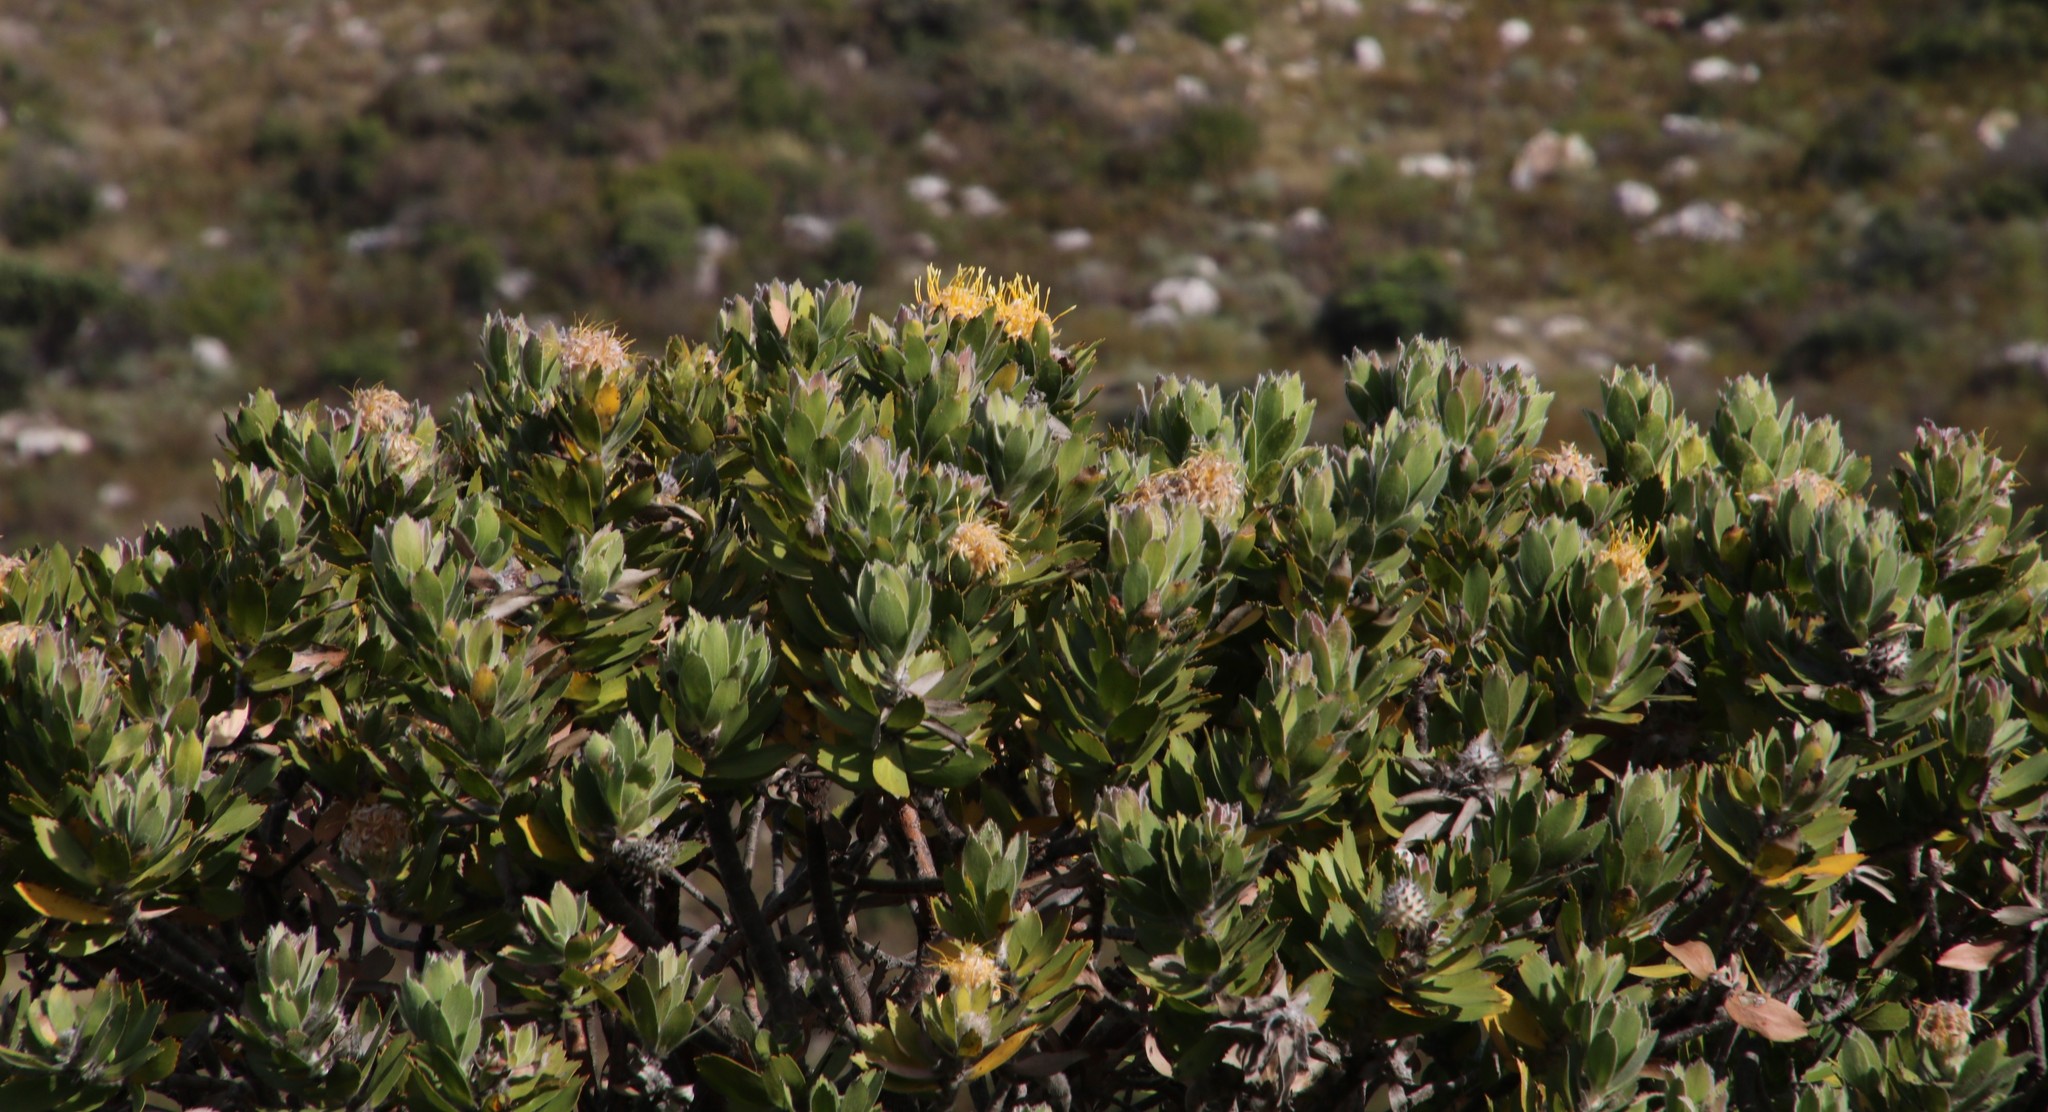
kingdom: Plantae
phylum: Tracheophyta
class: Magnoliopsida
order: Proteales
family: Proteaceae
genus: Leucospermum
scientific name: Leucospermum conocarpodendron
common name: Tree pincushion
